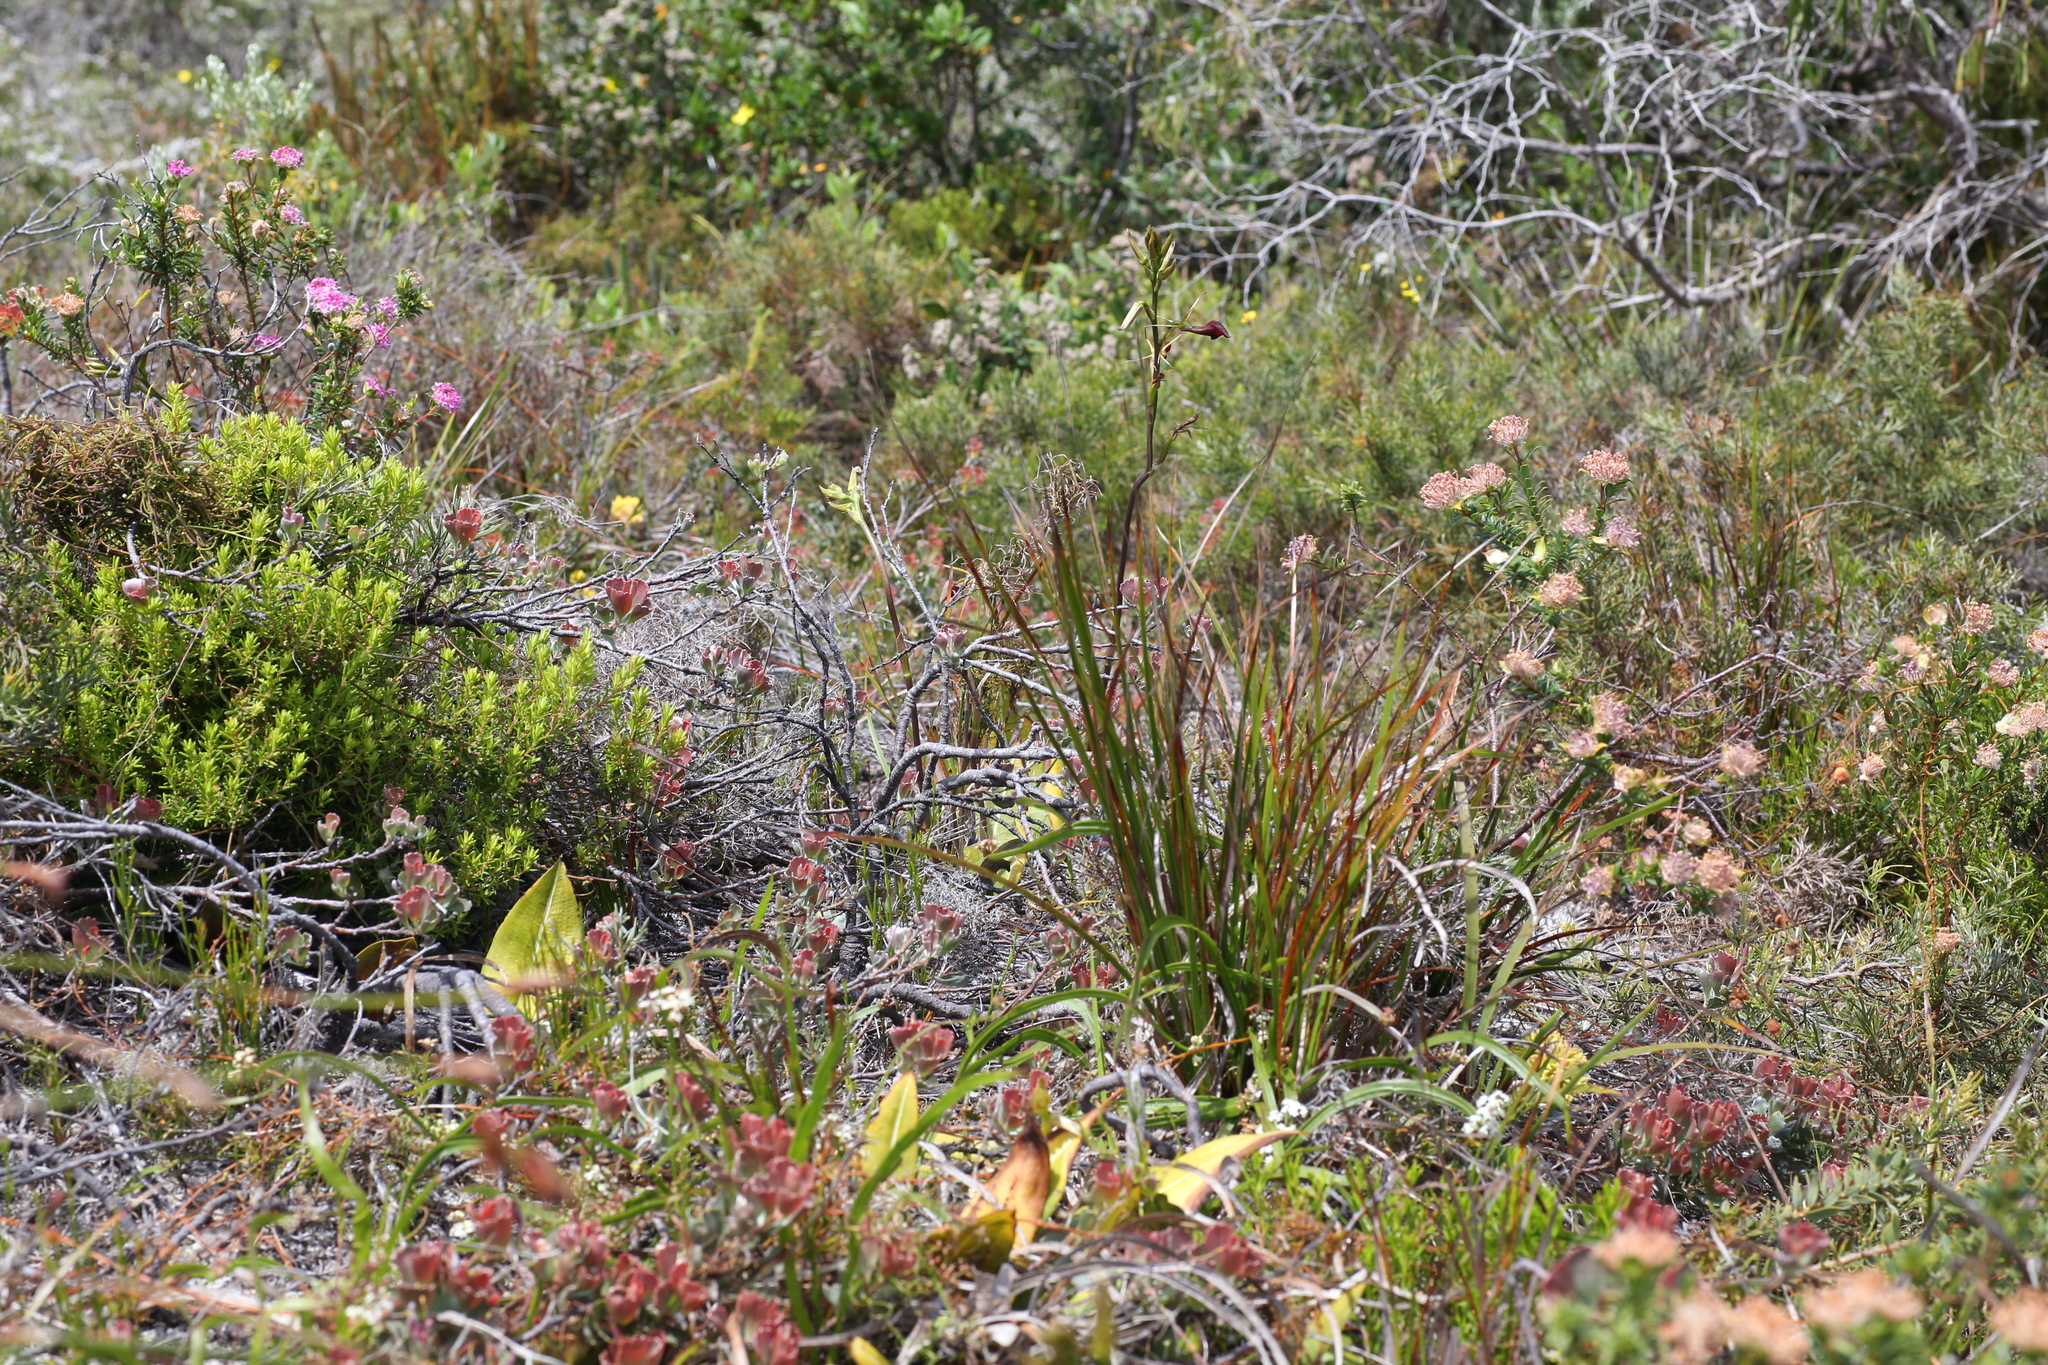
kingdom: Plantae
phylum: Tracheophyta
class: Liliopsida
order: Asparagales
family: Orchidaceae
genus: Cryptostylis
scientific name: Cryptostylis ovata
